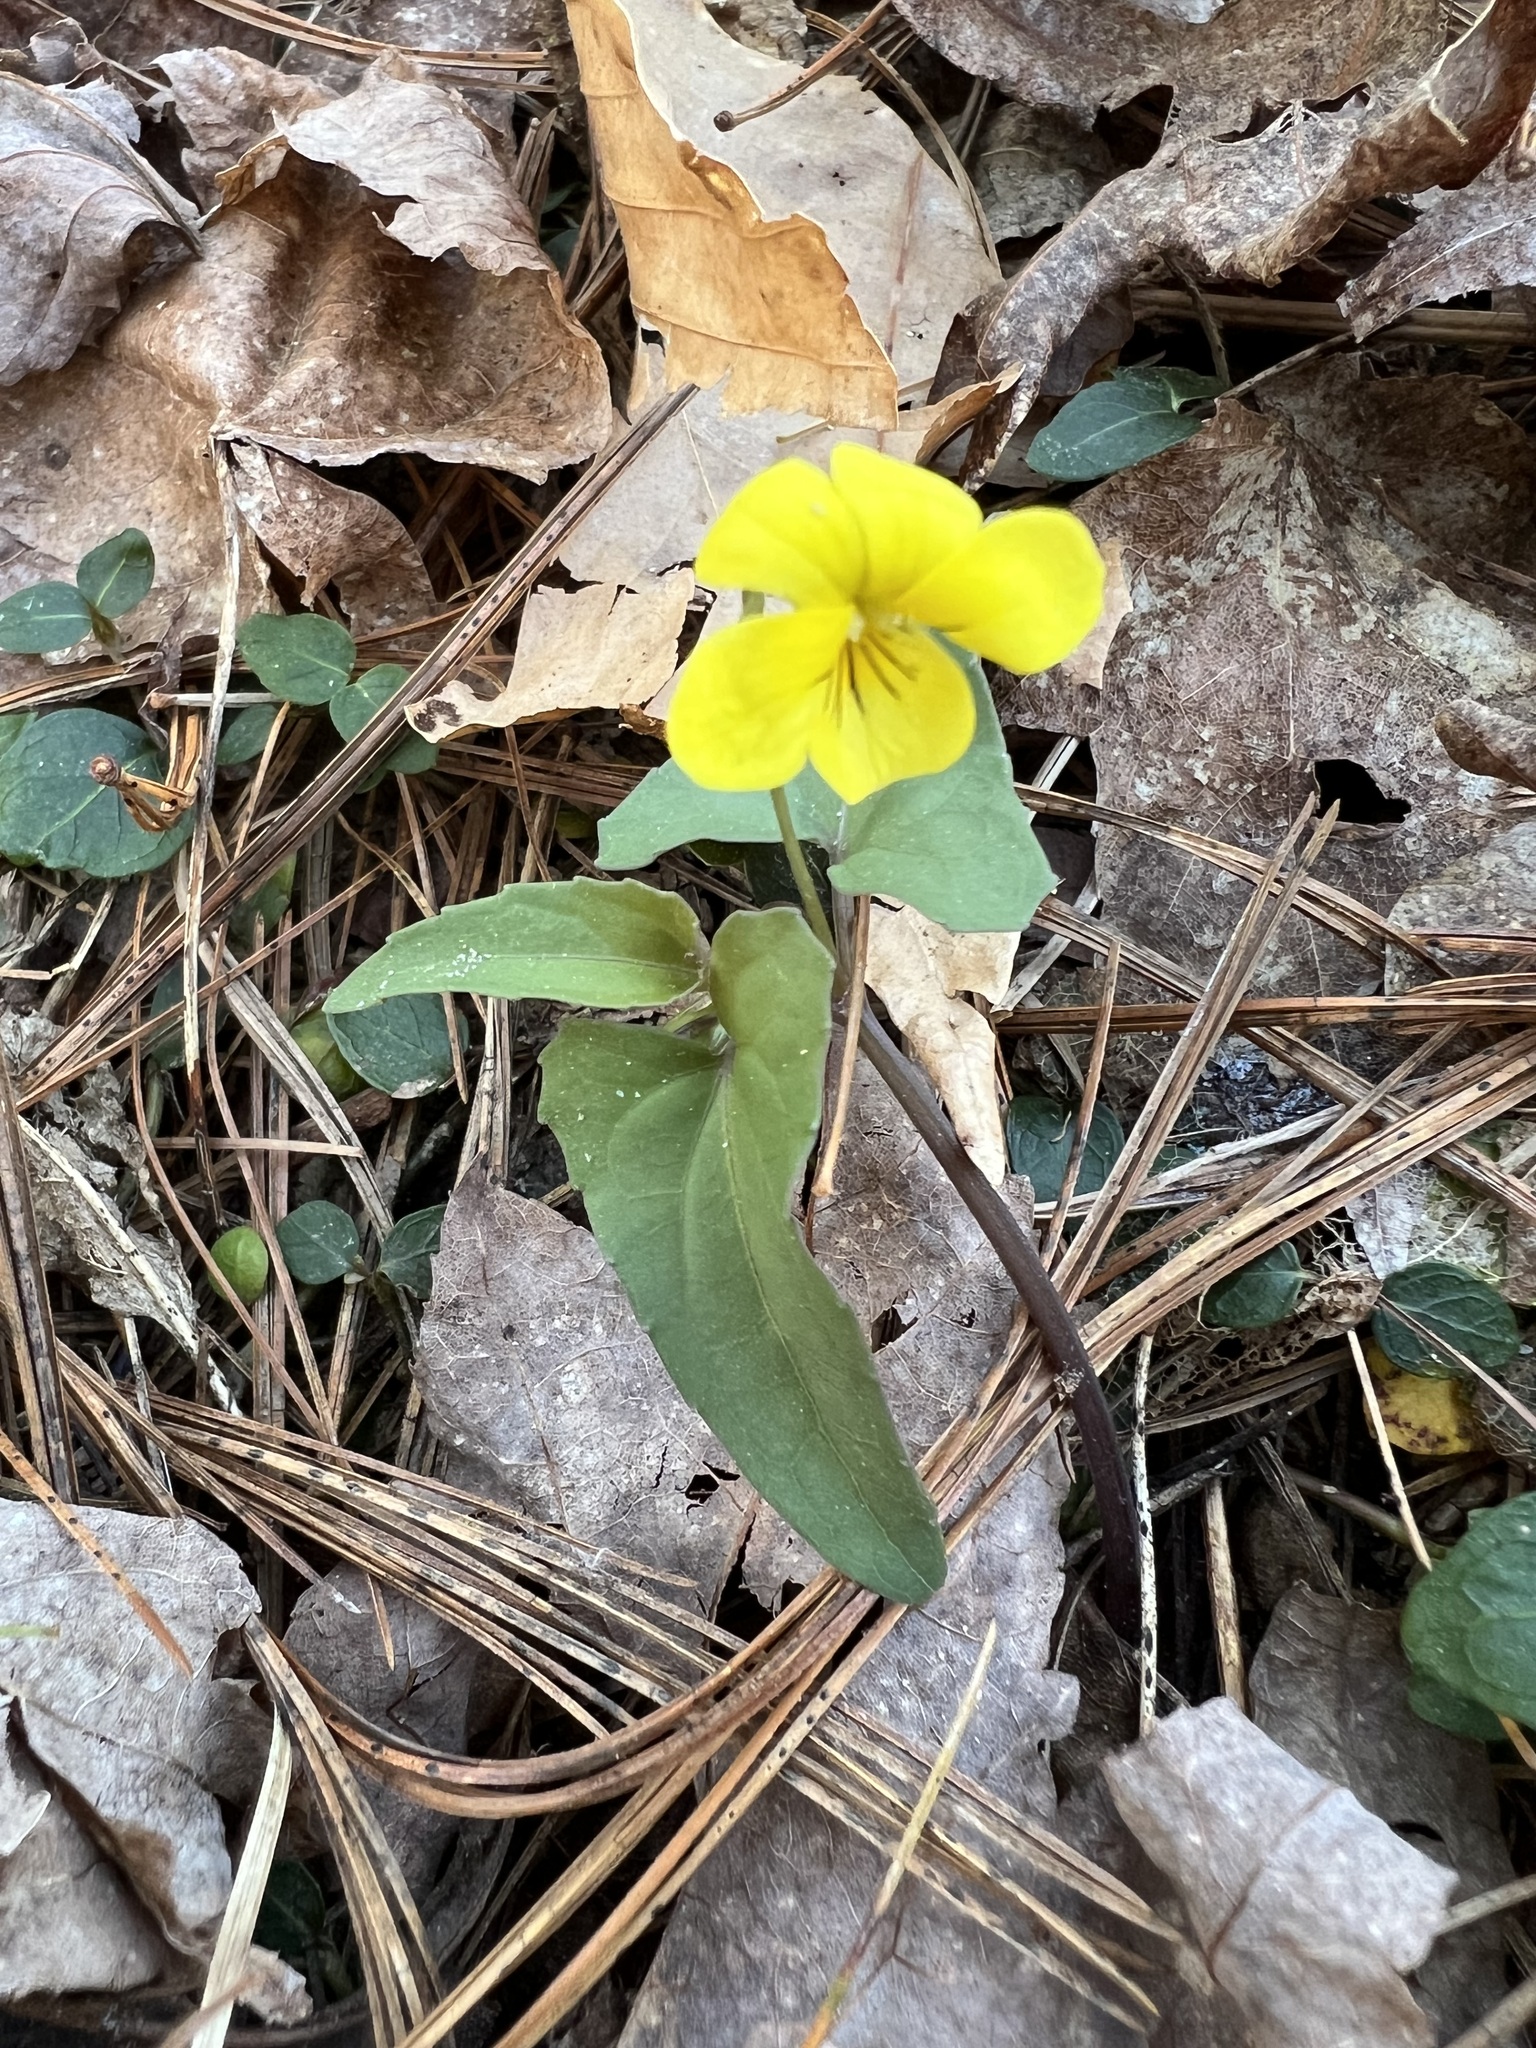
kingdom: Plantae
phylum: Tracheophyta
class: Magnoliopsida
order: Malpighiales
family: Violaceae
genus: Viola
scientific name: Viola hastata
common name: Spear-leaf violet
